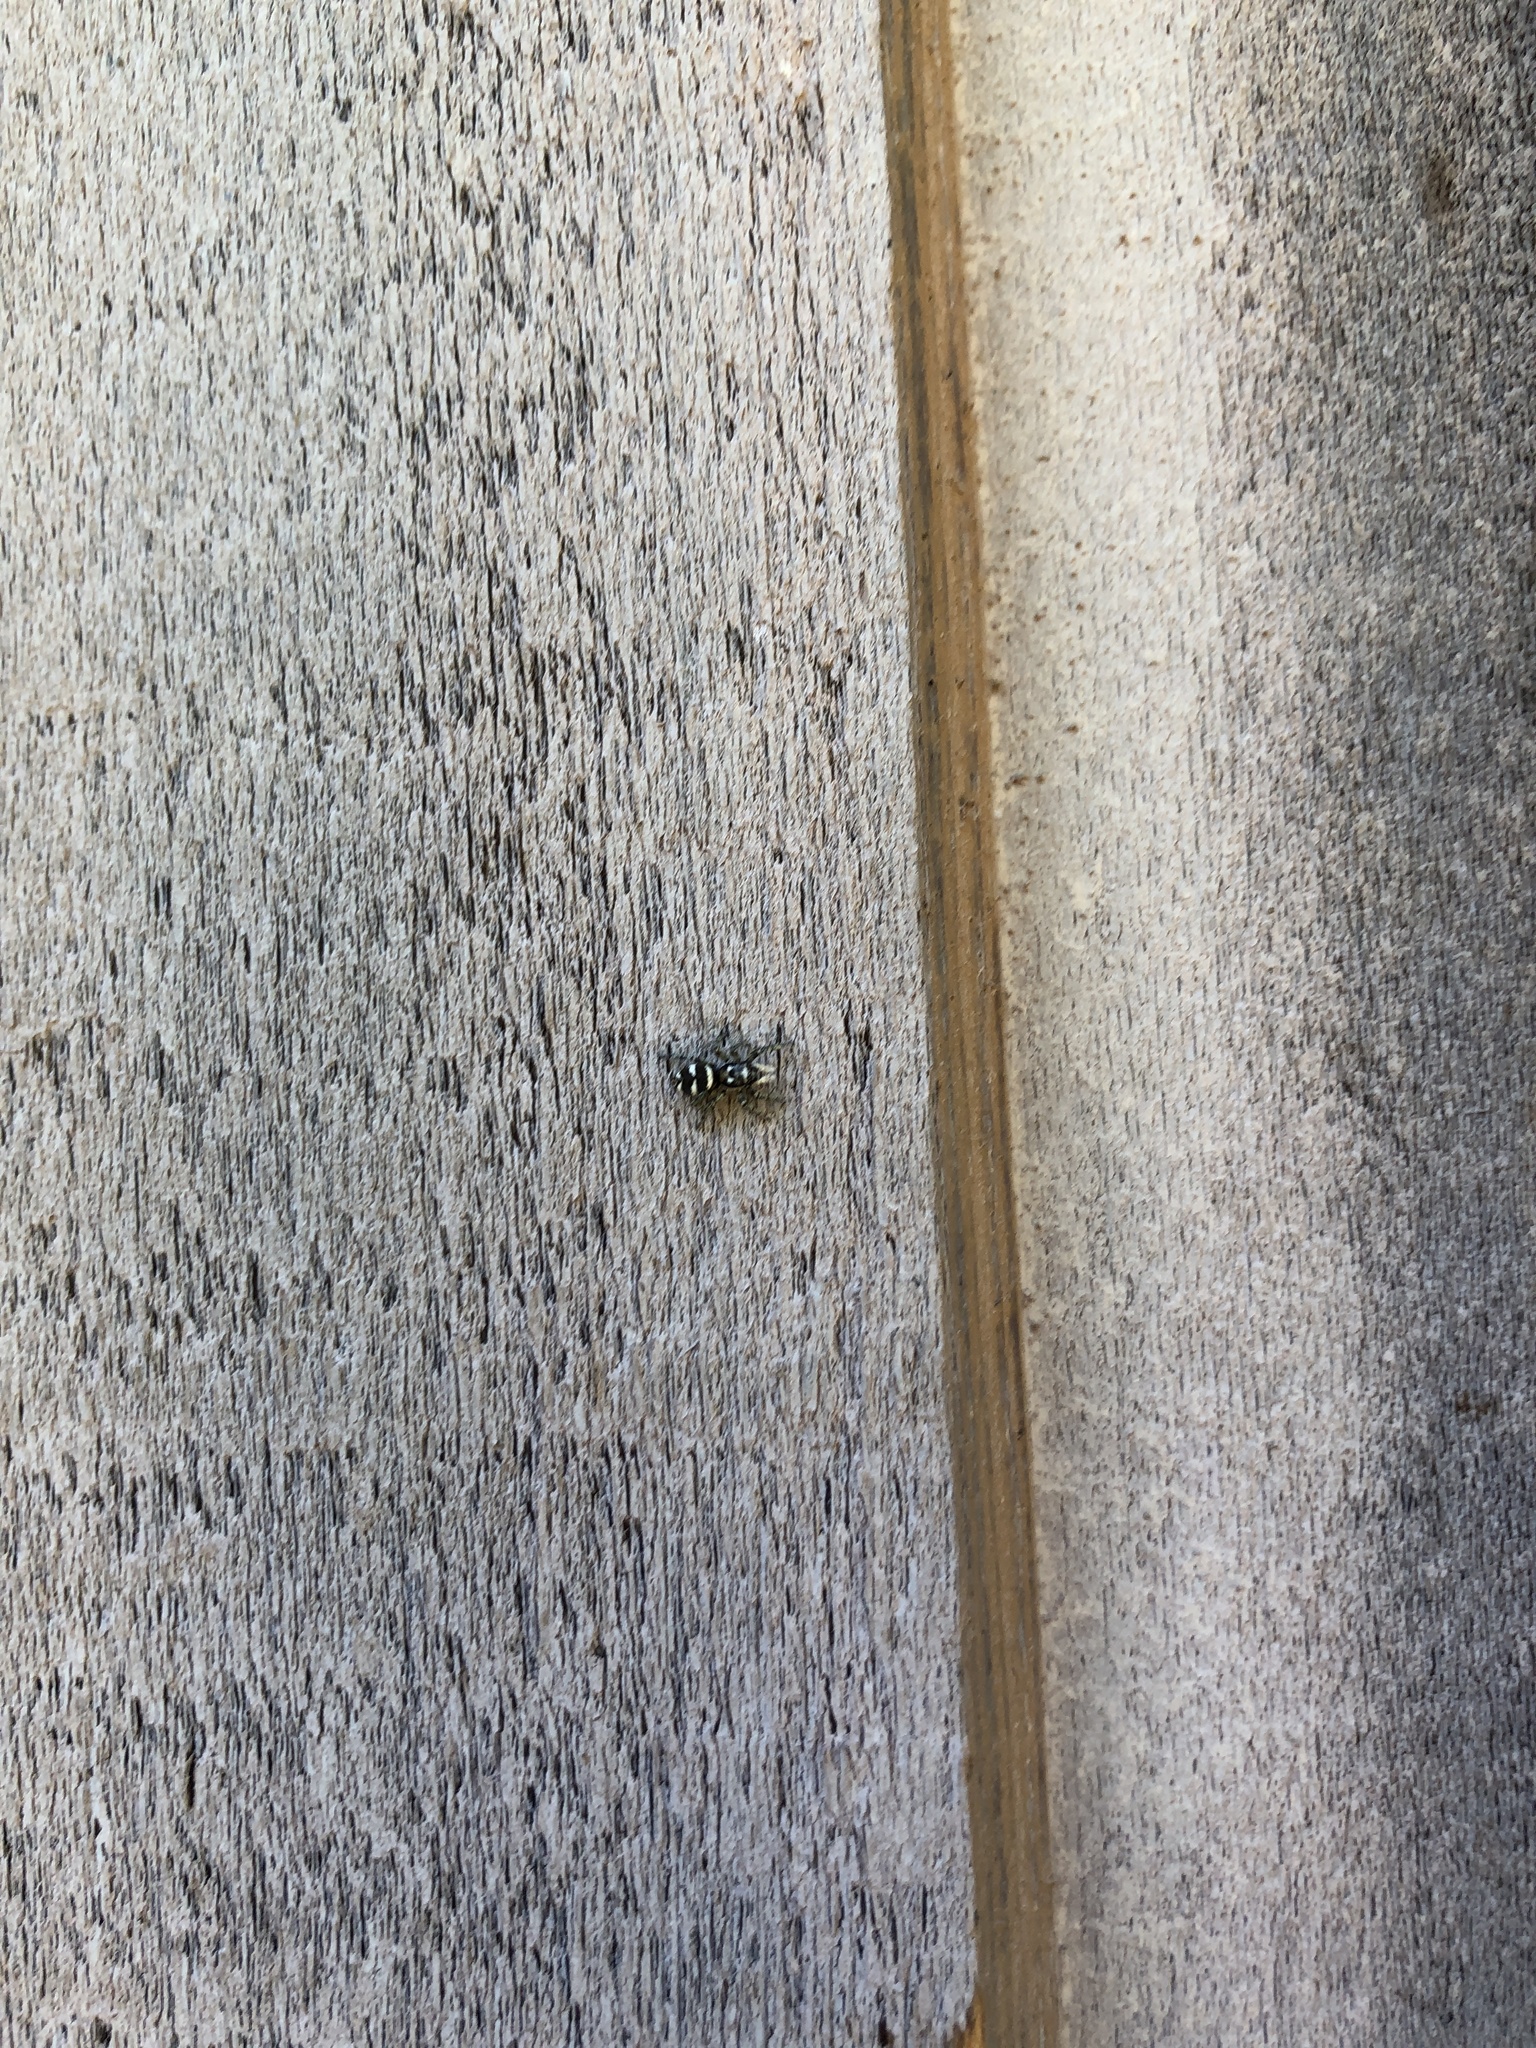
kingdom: Animalia
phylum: Arthropoda
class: Arachnida
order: Araneae
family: Salticidae
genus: Salticus
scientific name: Salticus scenicus
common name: Zebra jumper
